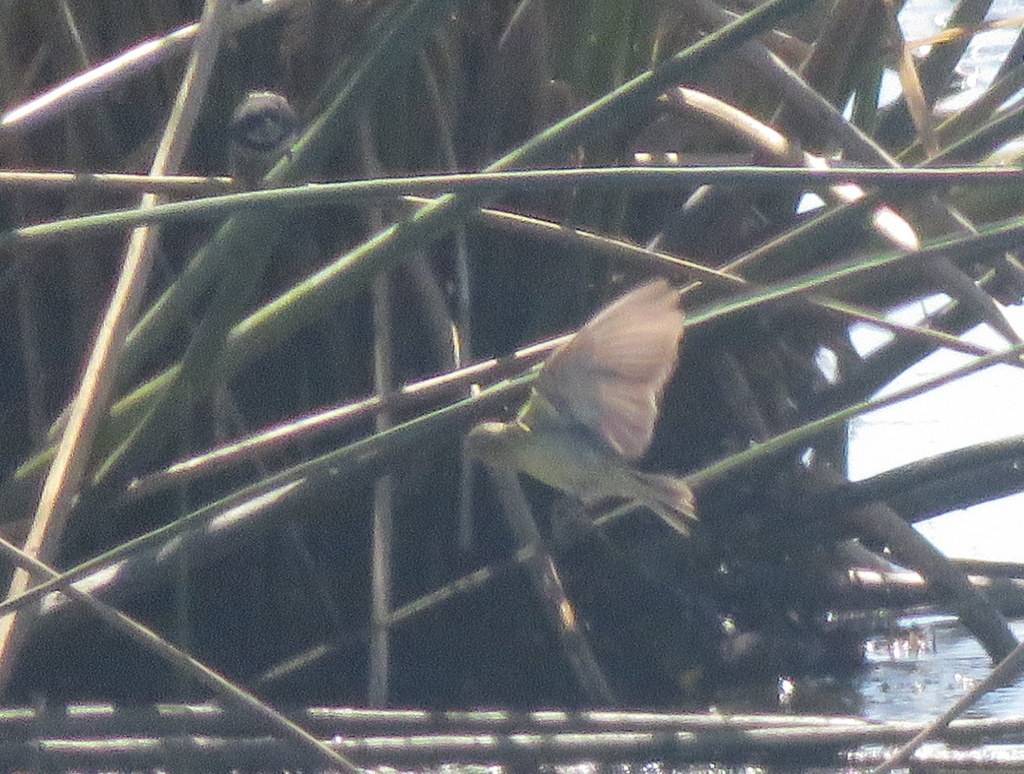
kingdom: Animalia
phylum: Chordata
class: Aves
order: Passeriformes
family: Thraupidae
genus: Sicalis
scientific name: Sicalis luteola
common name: Grassland yellow-finch
